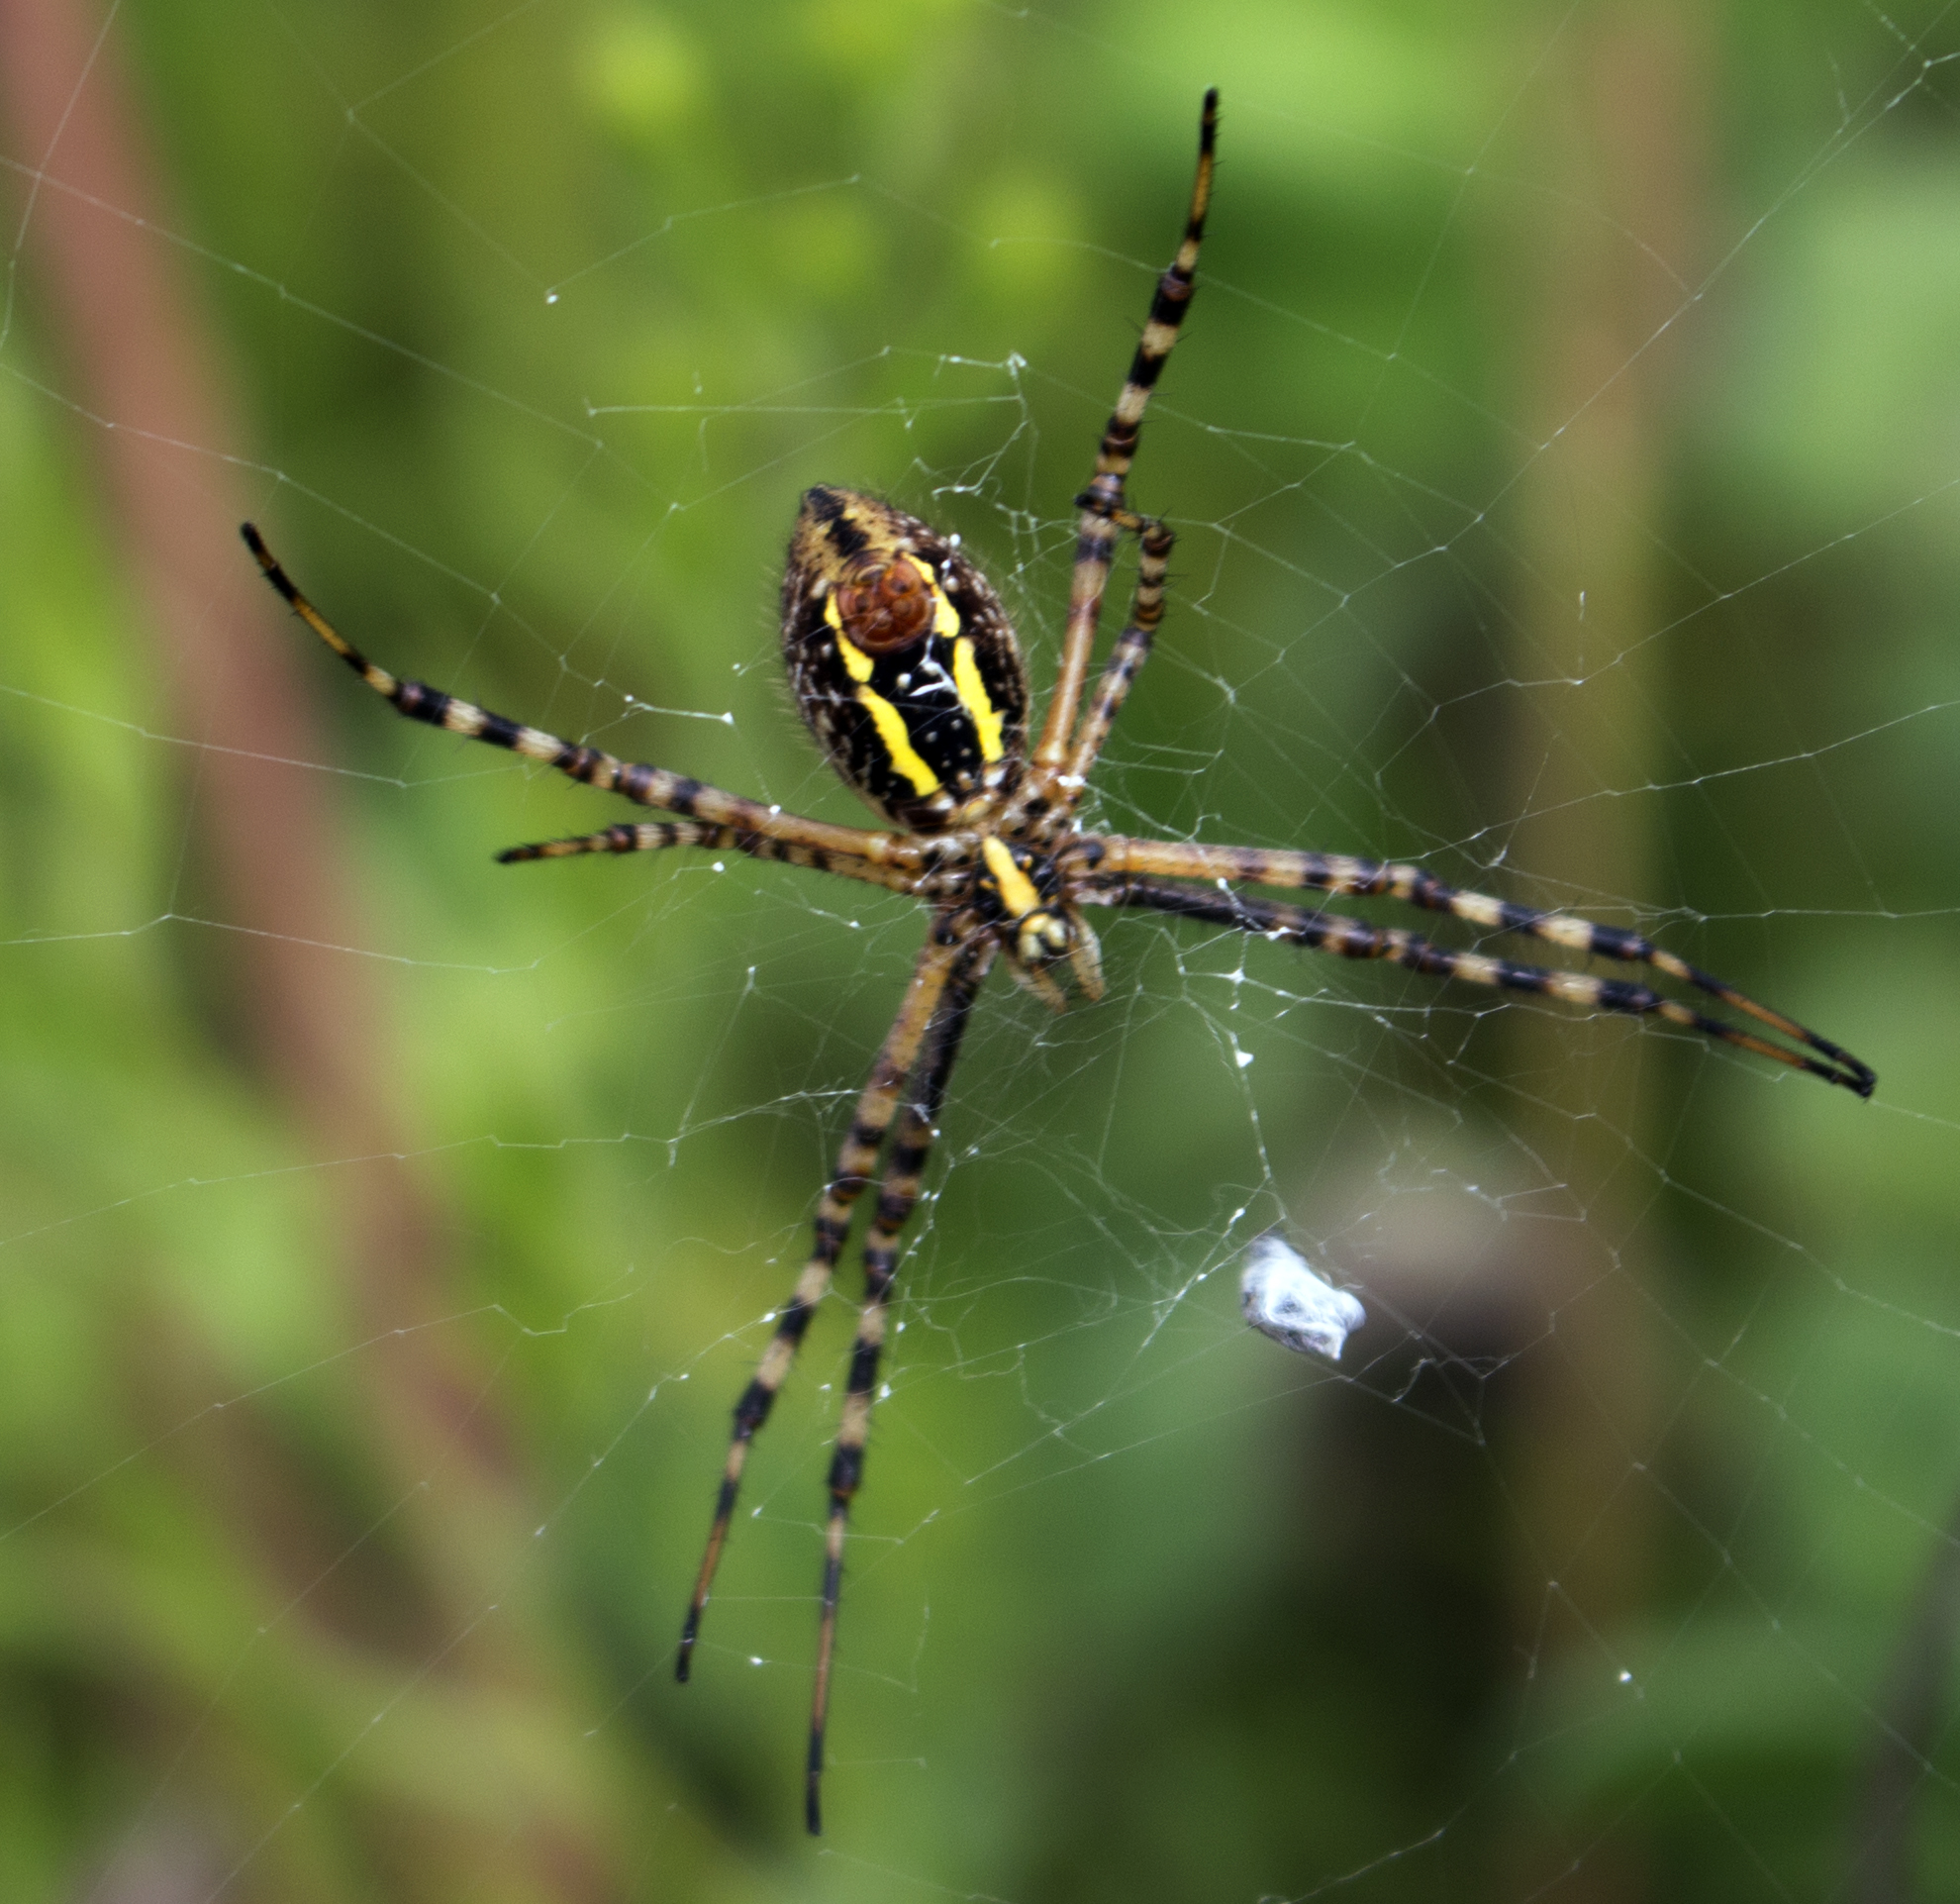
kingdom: Animalia
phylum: Arthropoda
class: Arachnida
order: Araneae
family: Araneidae
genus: Argiope
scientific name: Argiope trifasciata
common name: Banded garden spider
